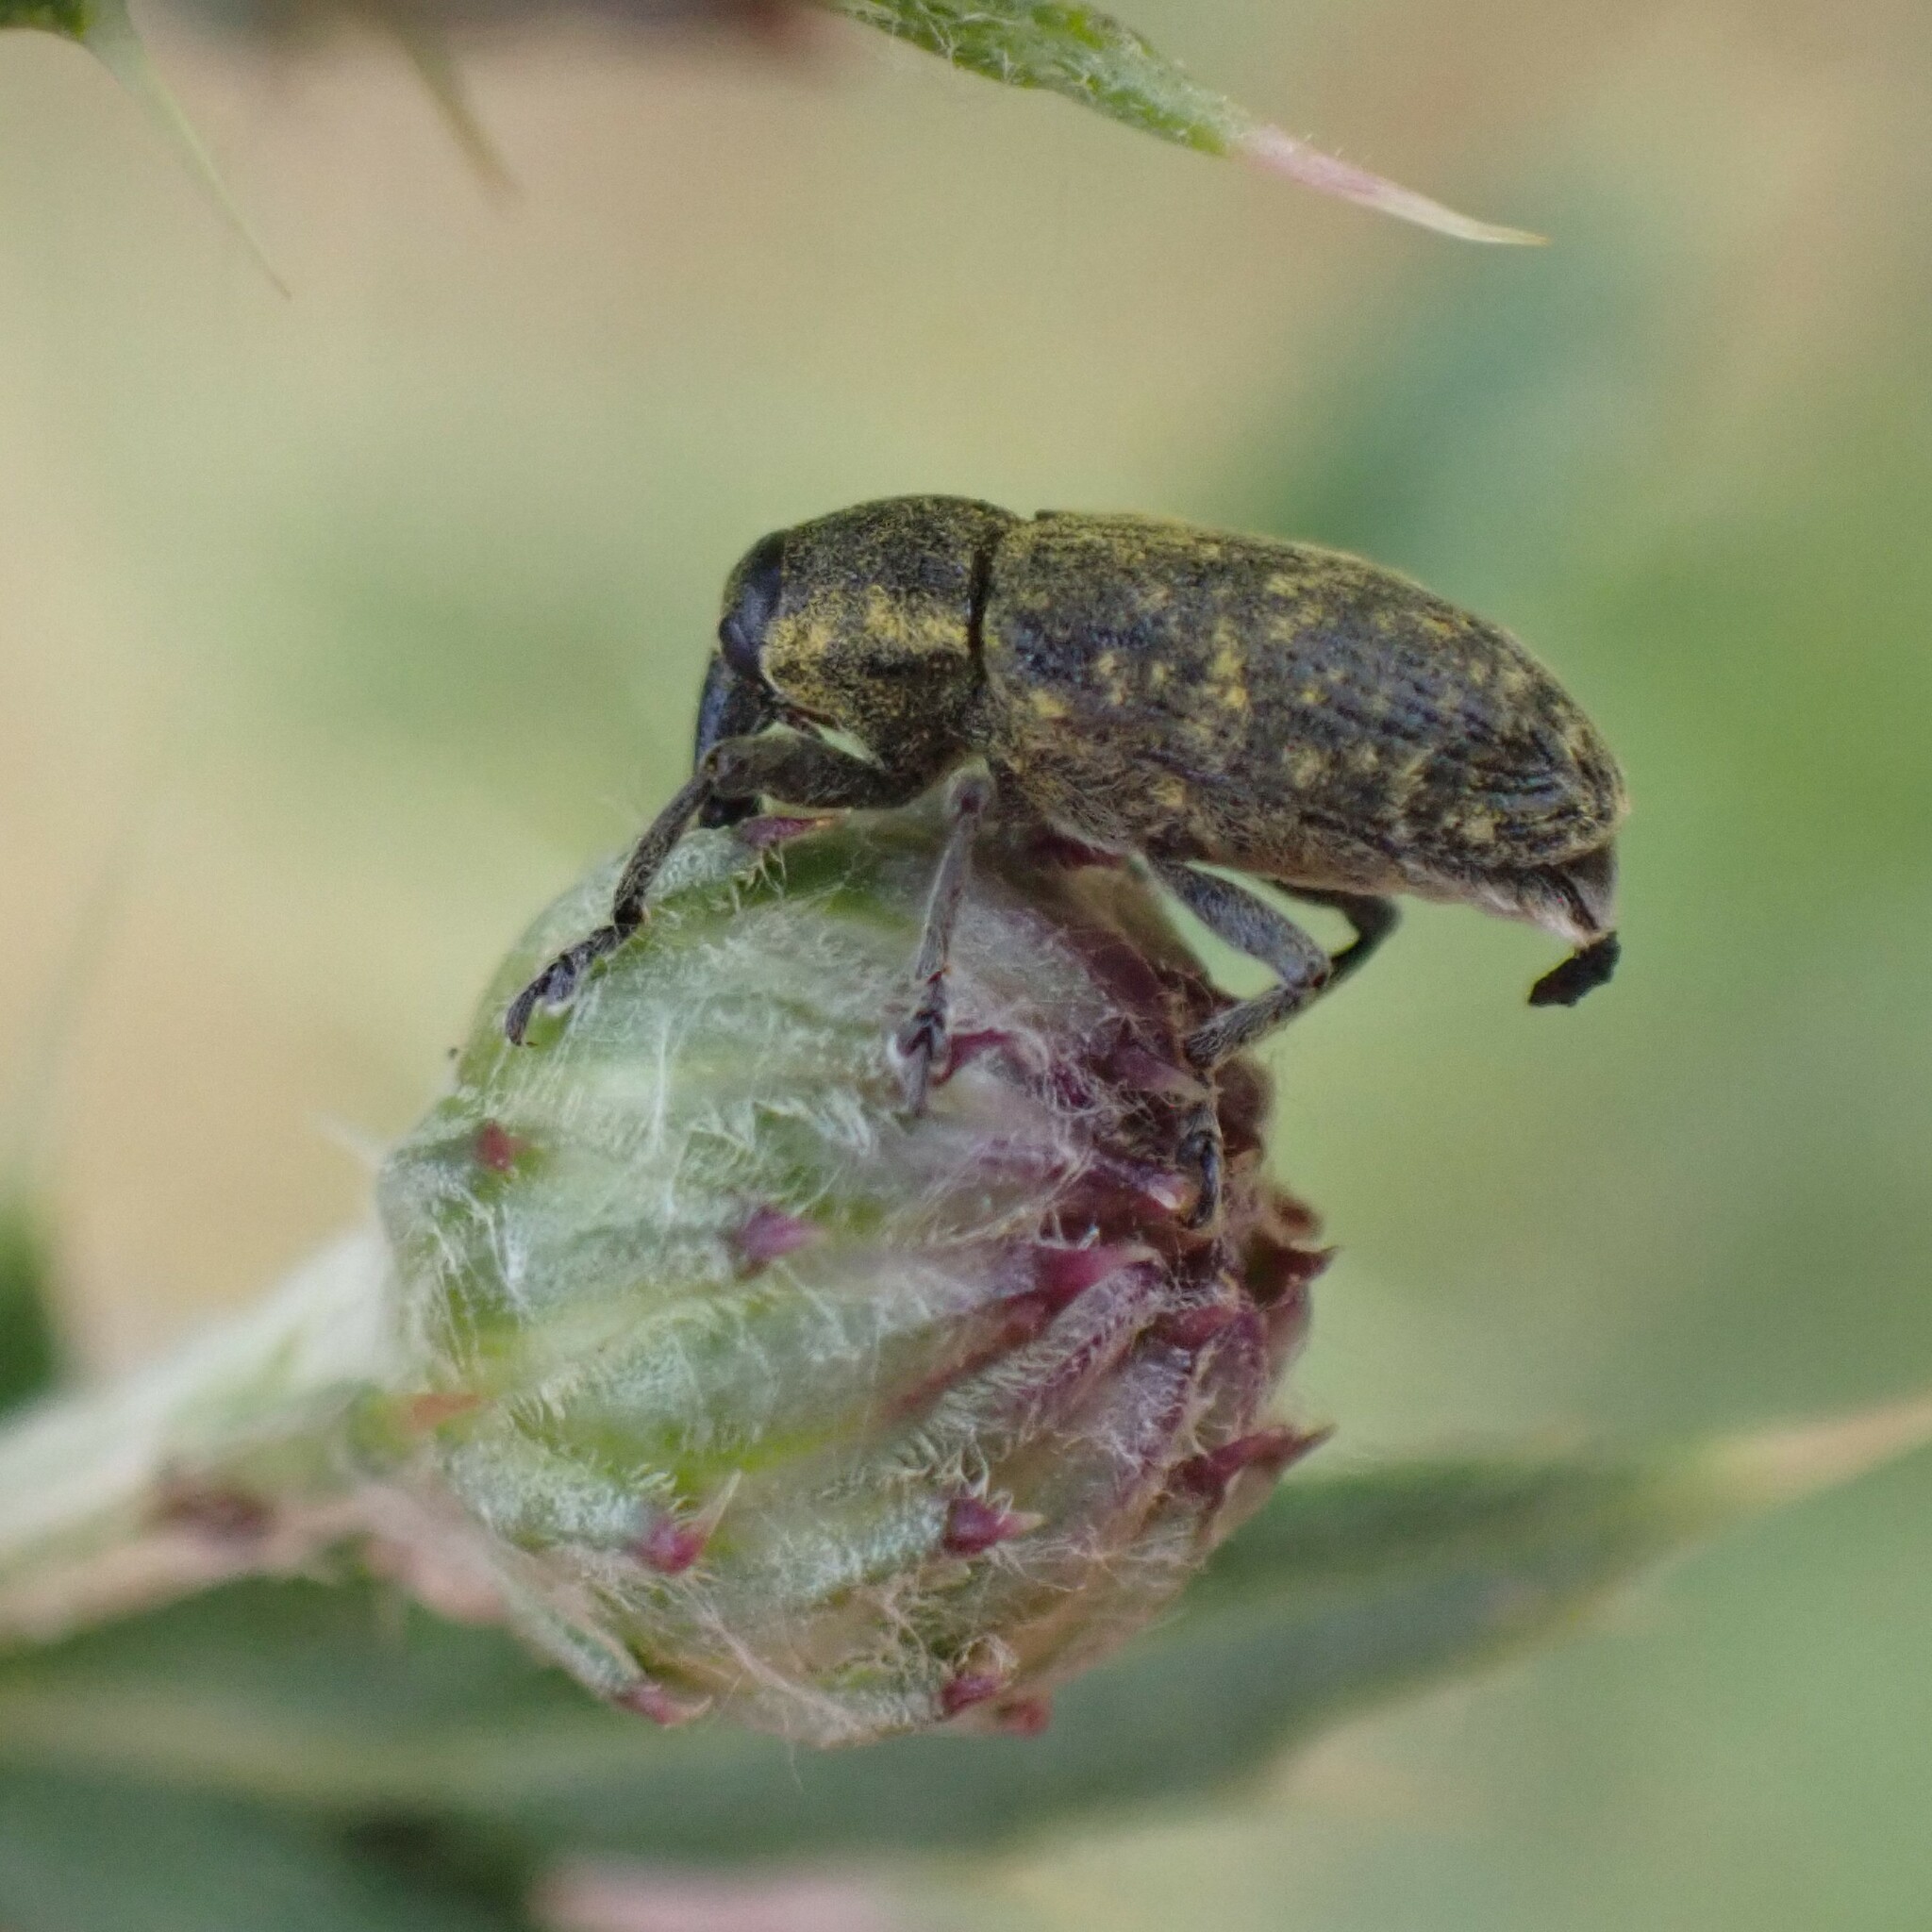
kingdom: Animalia
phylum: Arthropoda
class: Insecta
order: Coleoptera
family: Curculionidae
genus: Larinus
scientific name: Larinus carlinae
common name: Weevil
